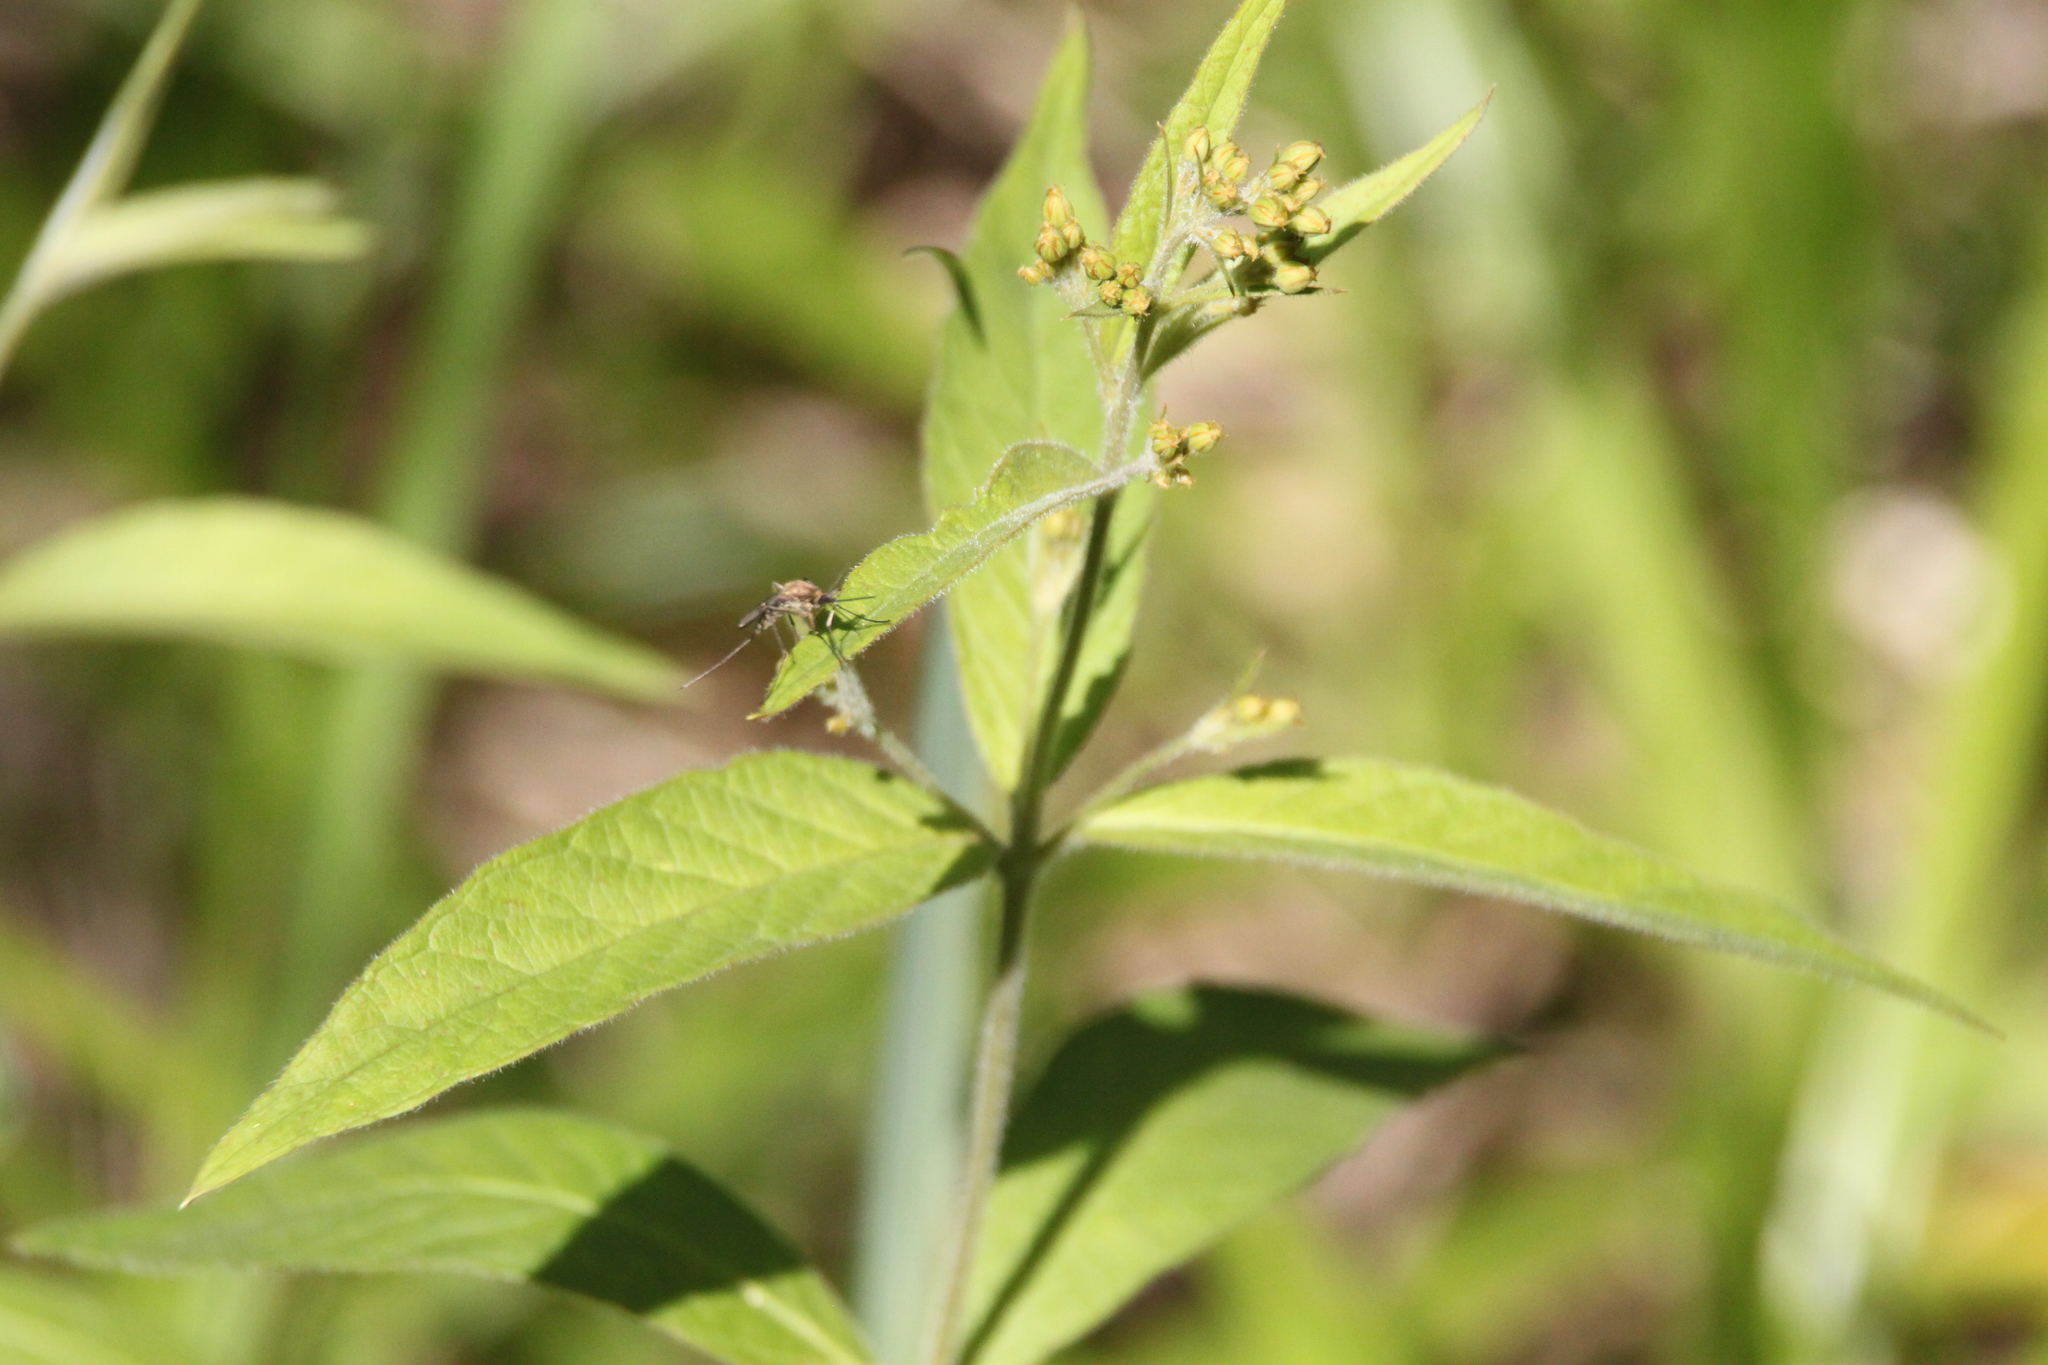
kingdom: Plantae
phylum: Tracheophyta
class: Magnoliopsida
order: Ericales
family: Primulaceae
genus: Lysimachia
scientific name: Lysimachia vulgaris
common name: Yellow loosestrife
